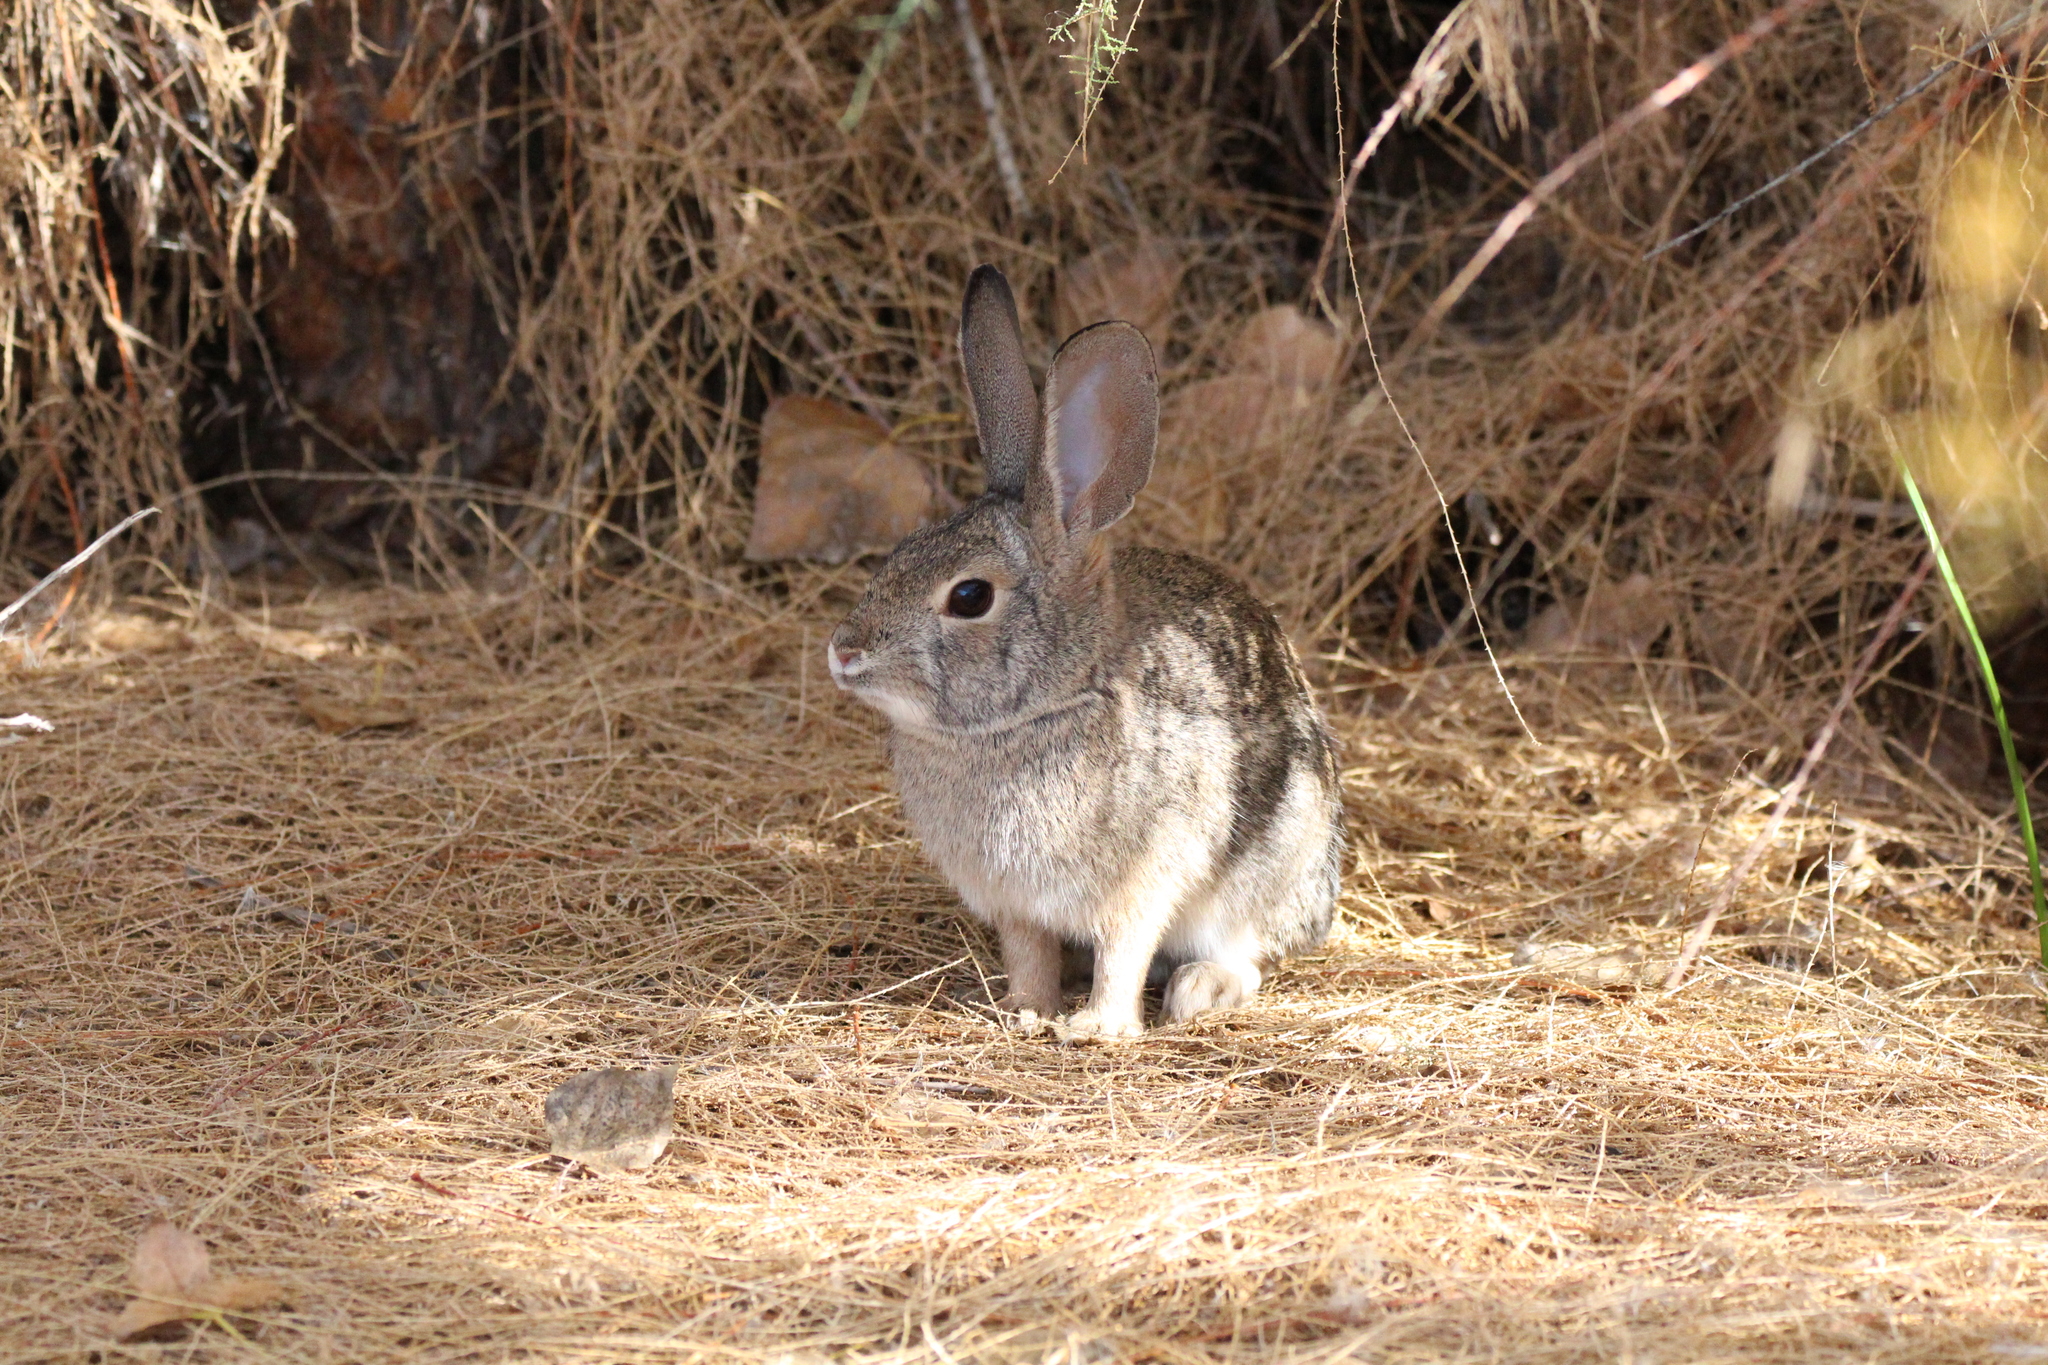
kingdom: Animalia
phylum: Chordata
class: Mammalia
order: Lagomorpha
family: Leporidae
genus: Sylvilagus
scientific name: Sylvilagus audubonii
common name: Desert cottontail
